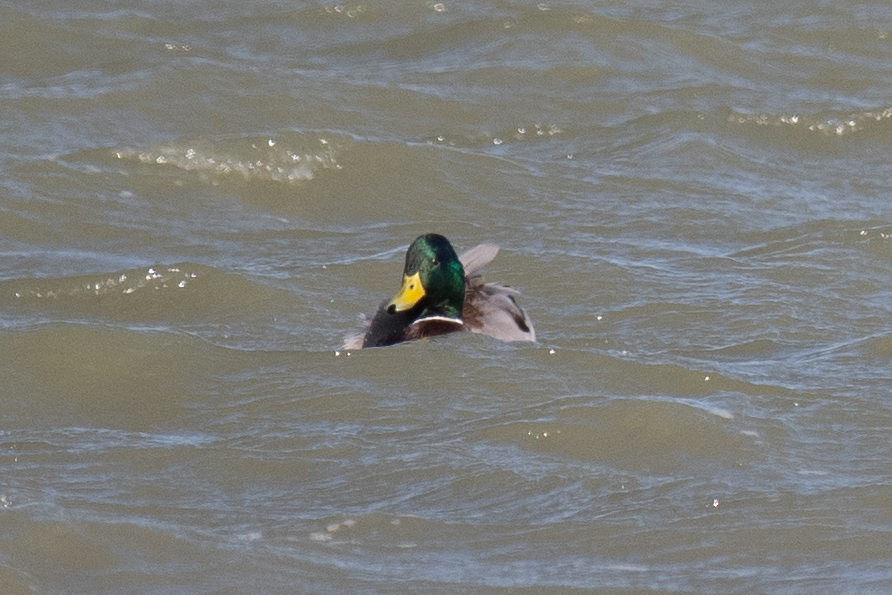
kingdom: Animalia
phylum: Chordata
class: Aves
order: Anseriformes
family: Anatidae
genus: Anas
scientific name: Anas platyrhynchos
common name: Mallard
